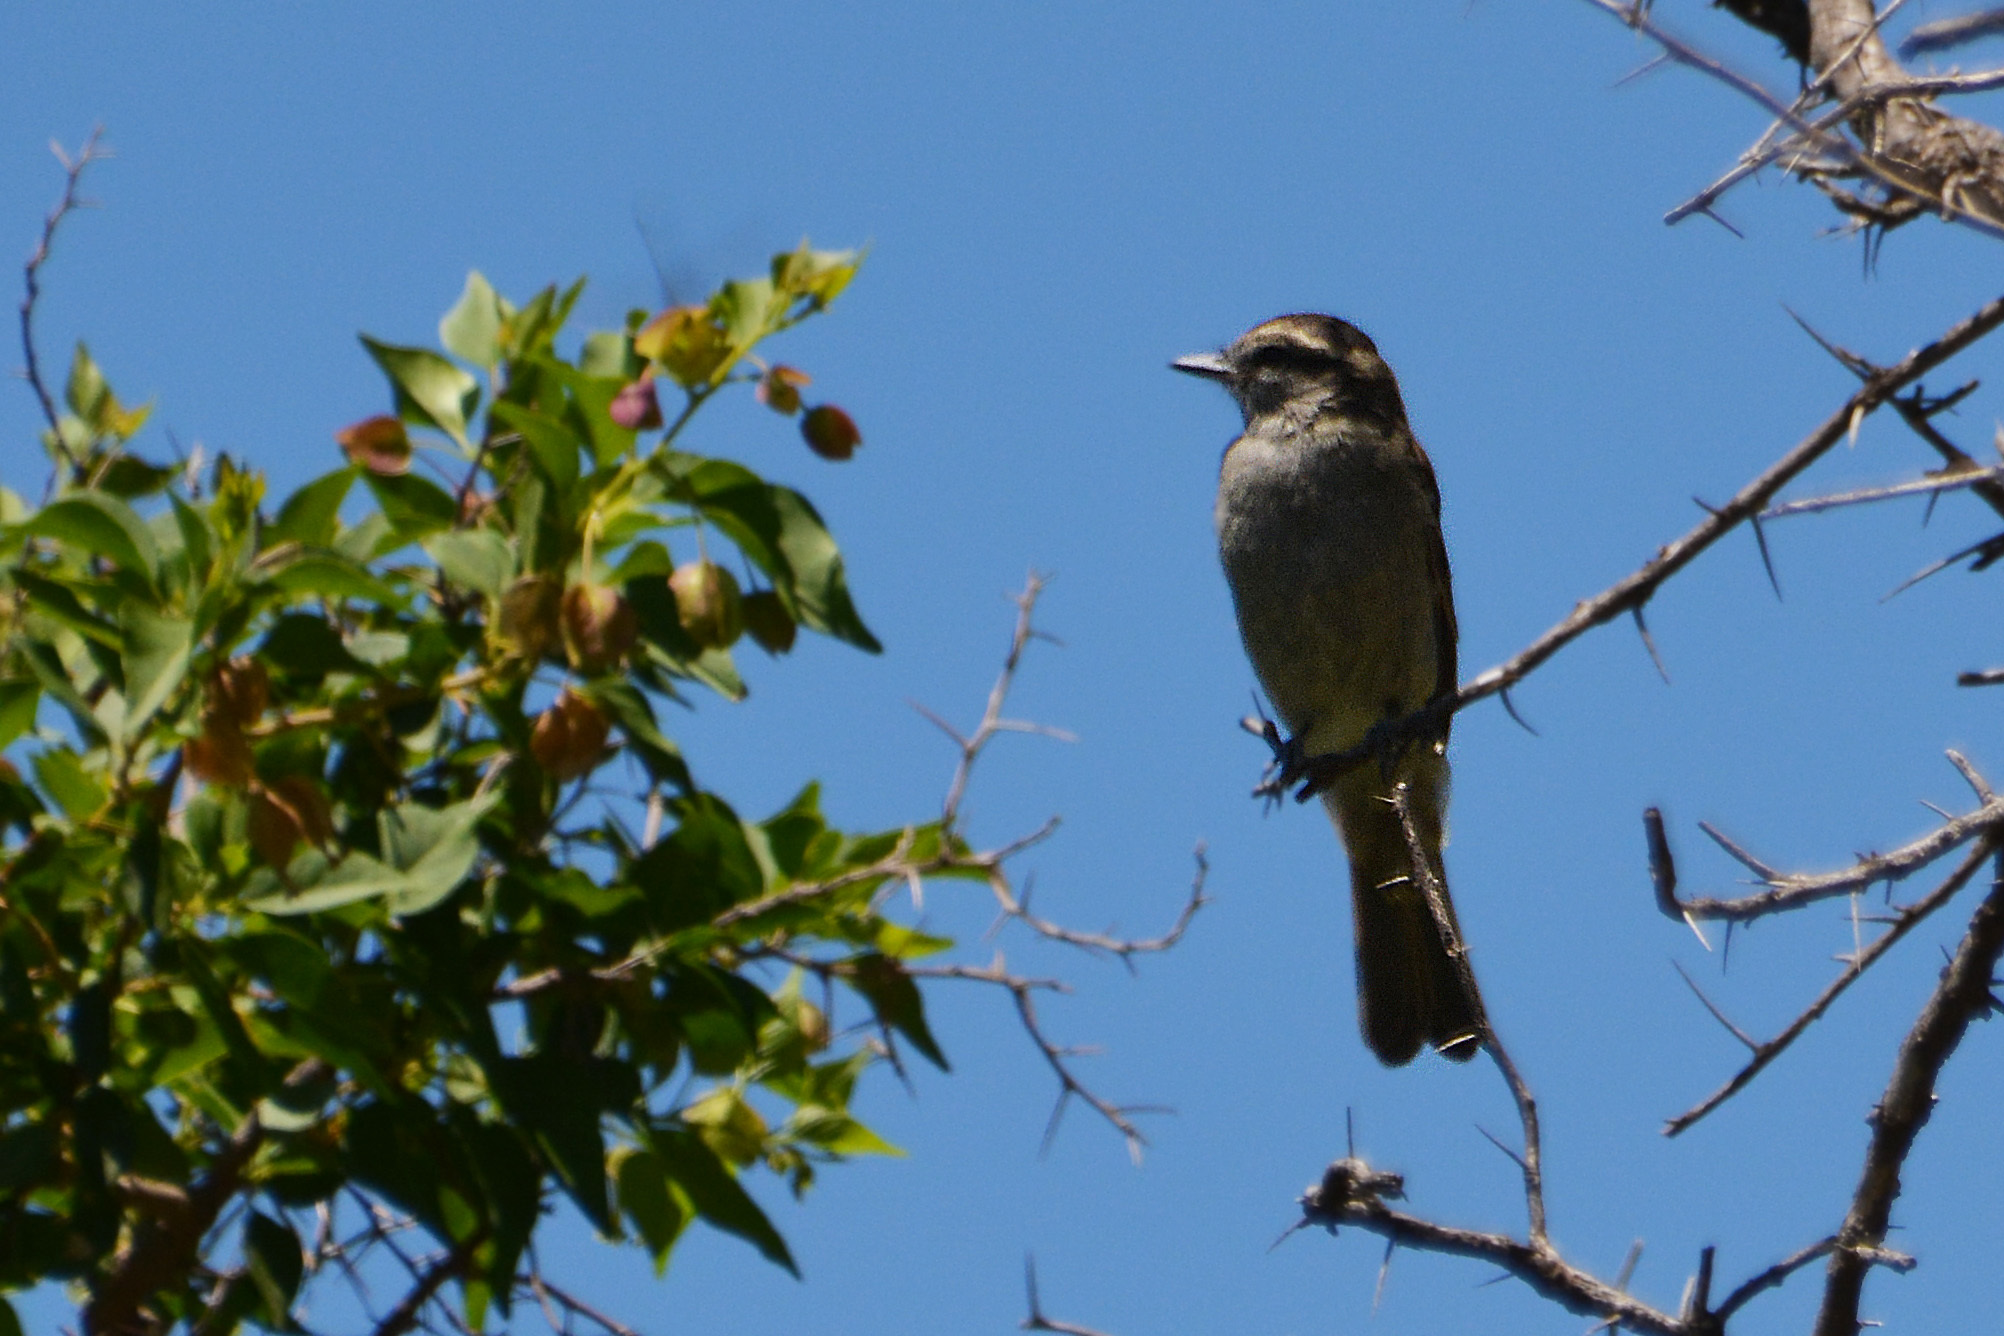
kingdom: Animalia
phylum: Chordata
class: Aves
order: Passeriformes
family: Tyrannidae
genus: Empidonomus
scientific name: Empidonomus aurantioatrocristatus
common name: Crowned slaty flycatcher
